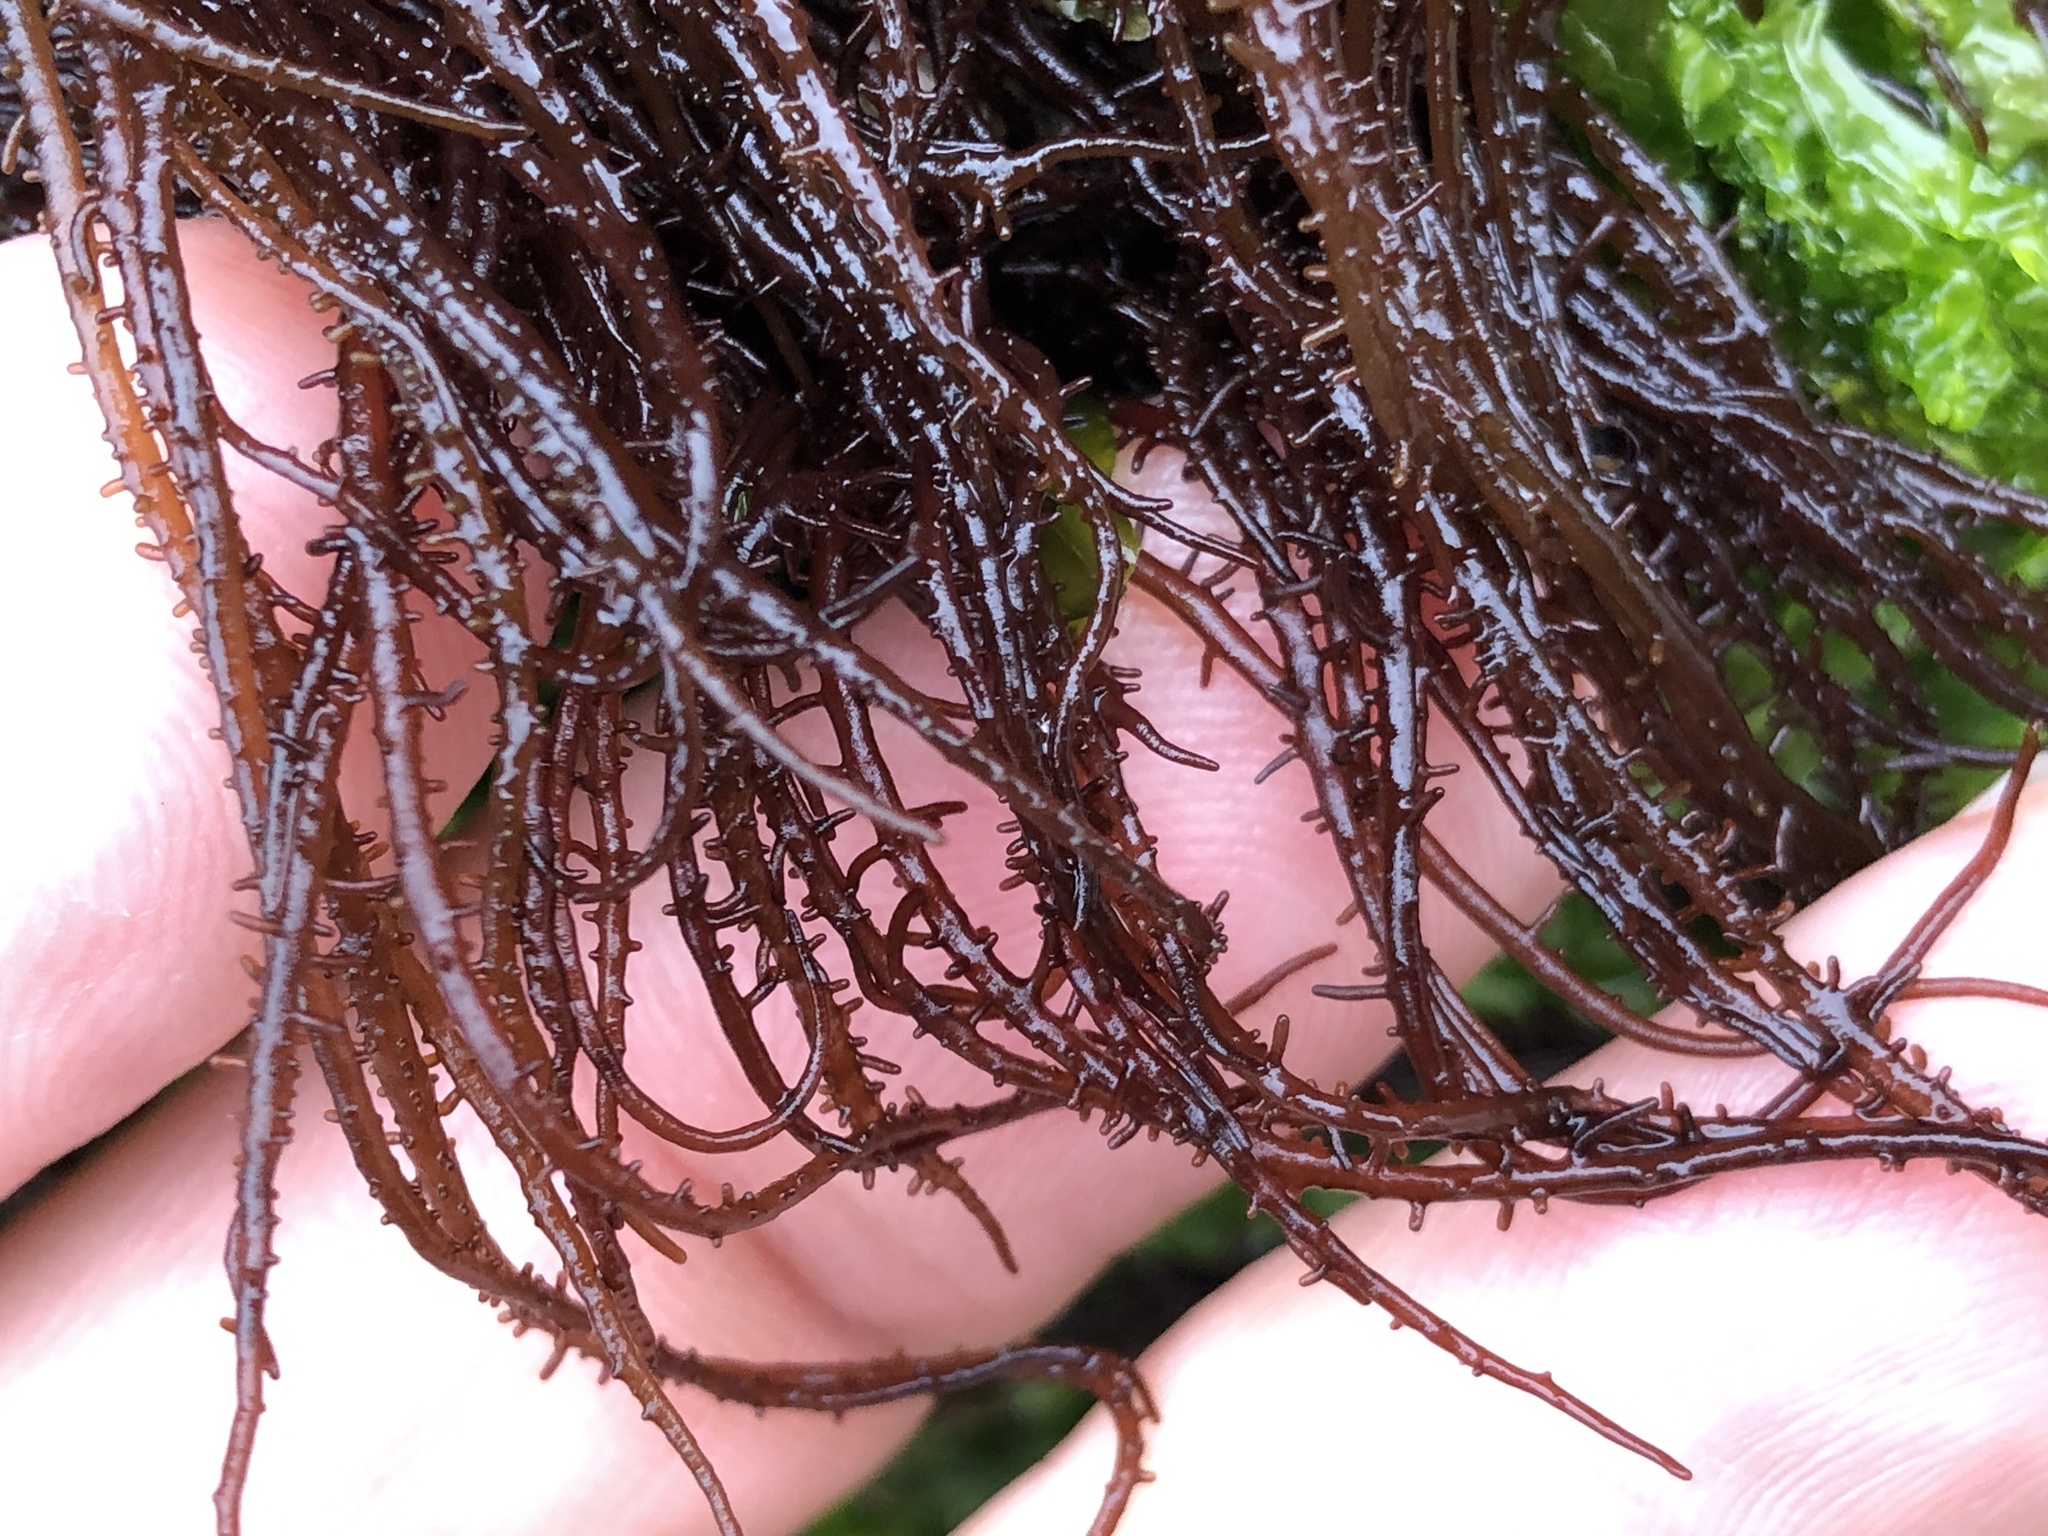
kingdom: Plantae
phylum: Rhodophyta
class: Florideophyceae
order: Nemaliales
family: Liagoraceae
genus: Cumagloia
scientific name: Cumagloia andersonii
